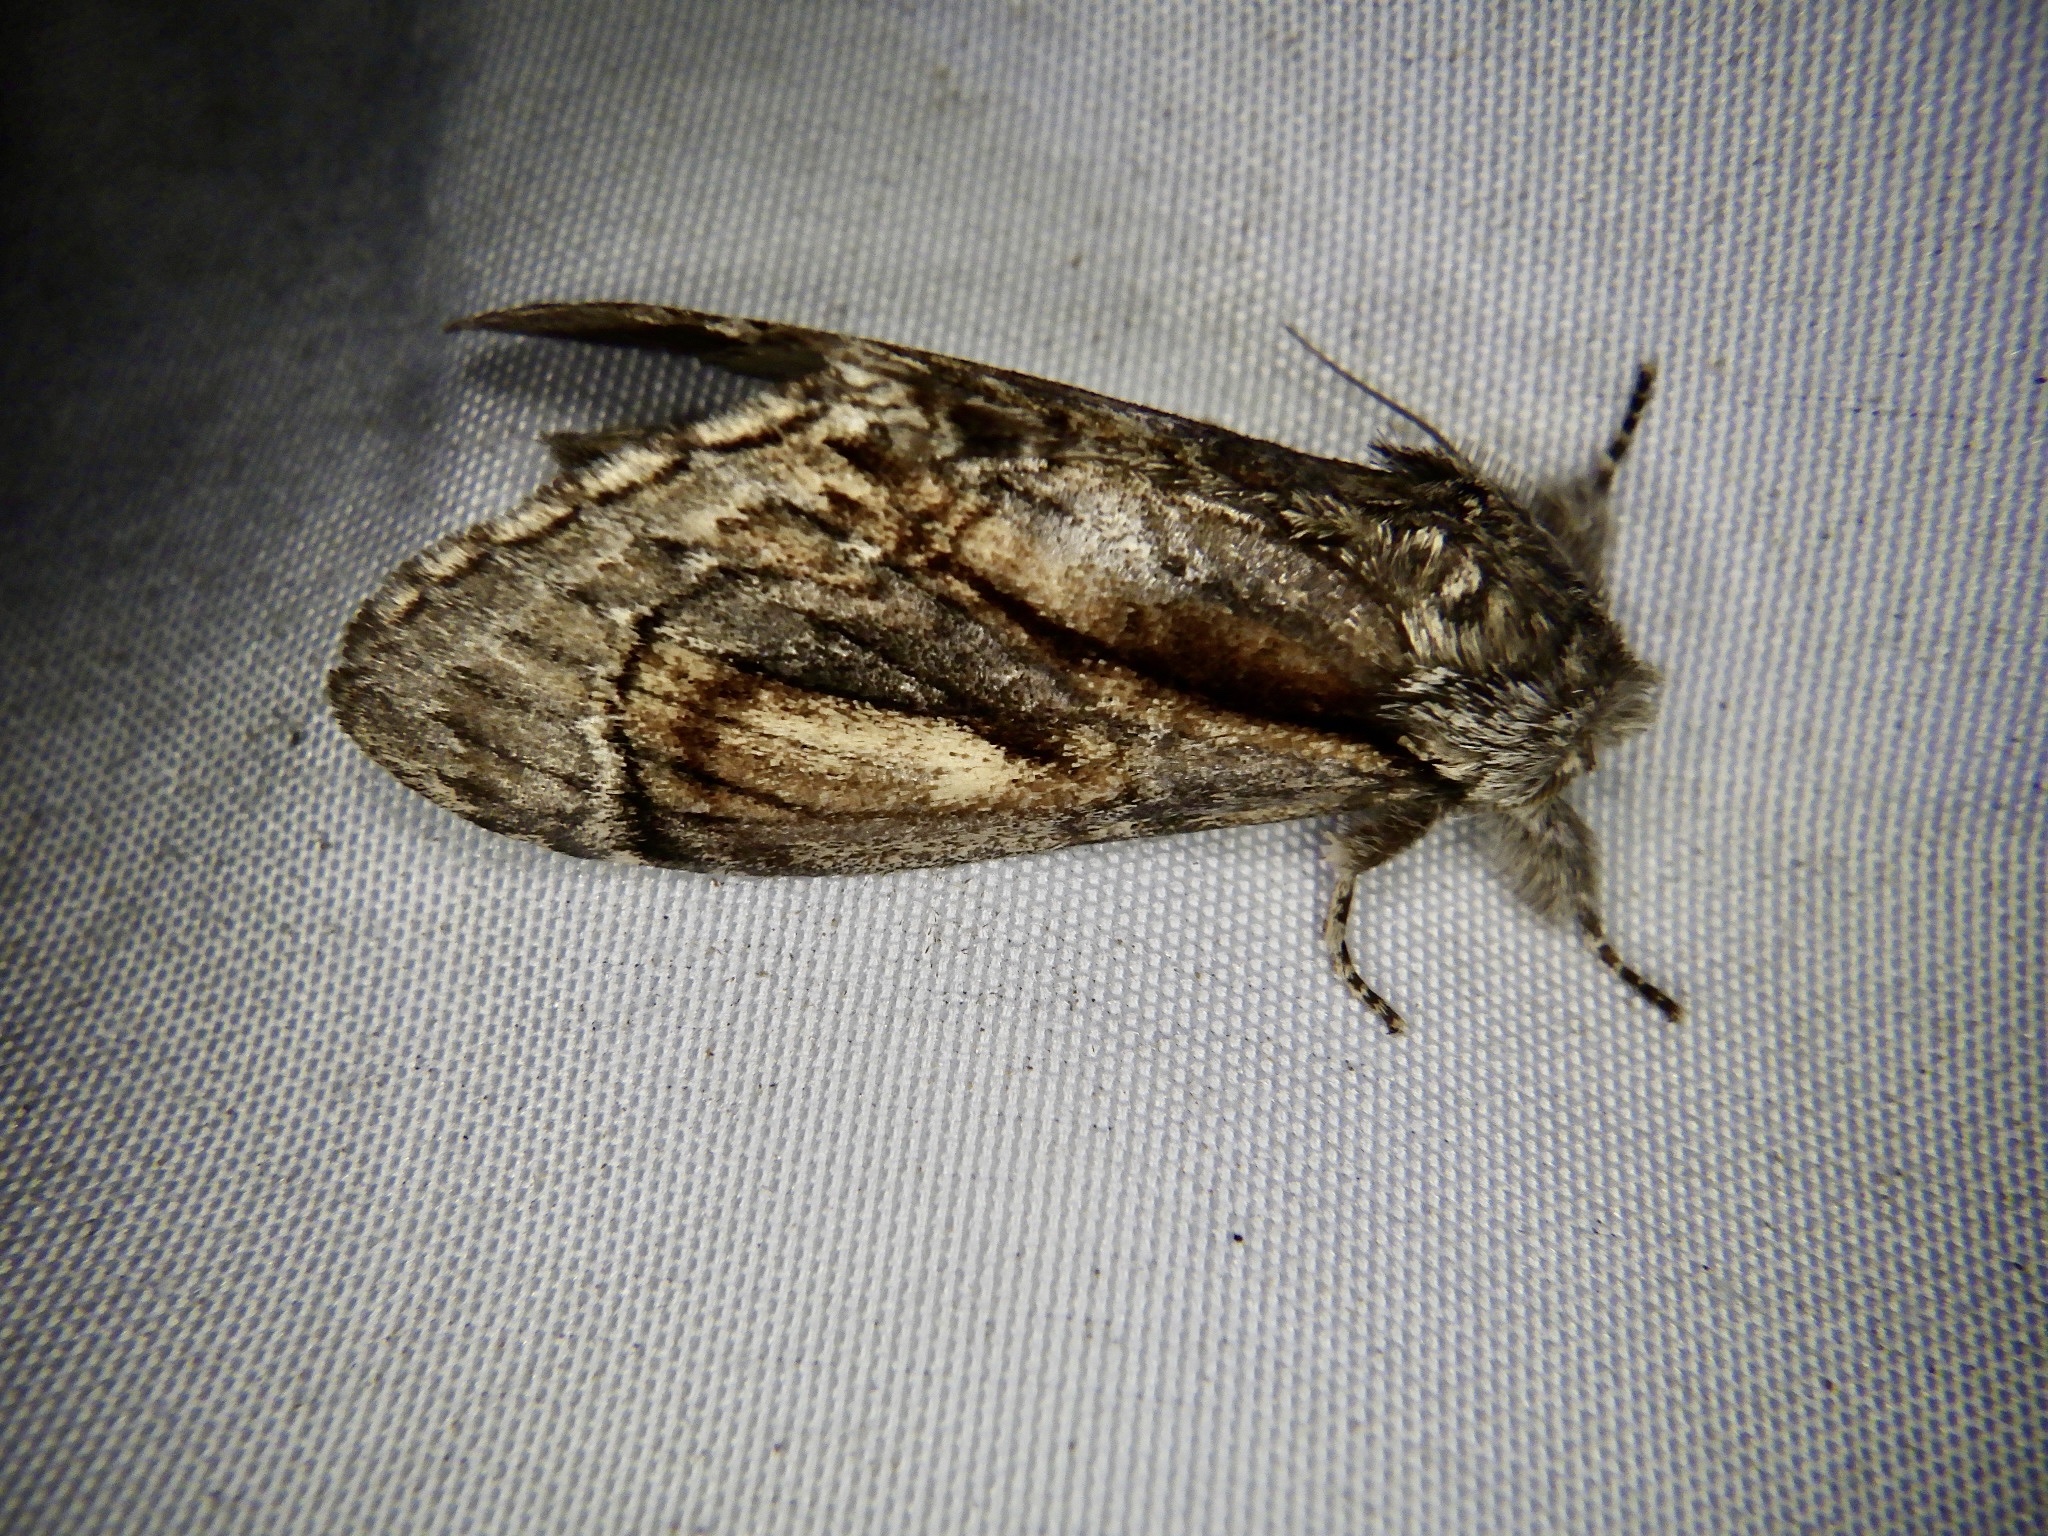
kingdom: Animalia
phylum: Arthropoda
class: Insecta
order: Lepidoptera
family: Notodontidae
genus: Fentonia
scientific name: Fentonia ocypete
